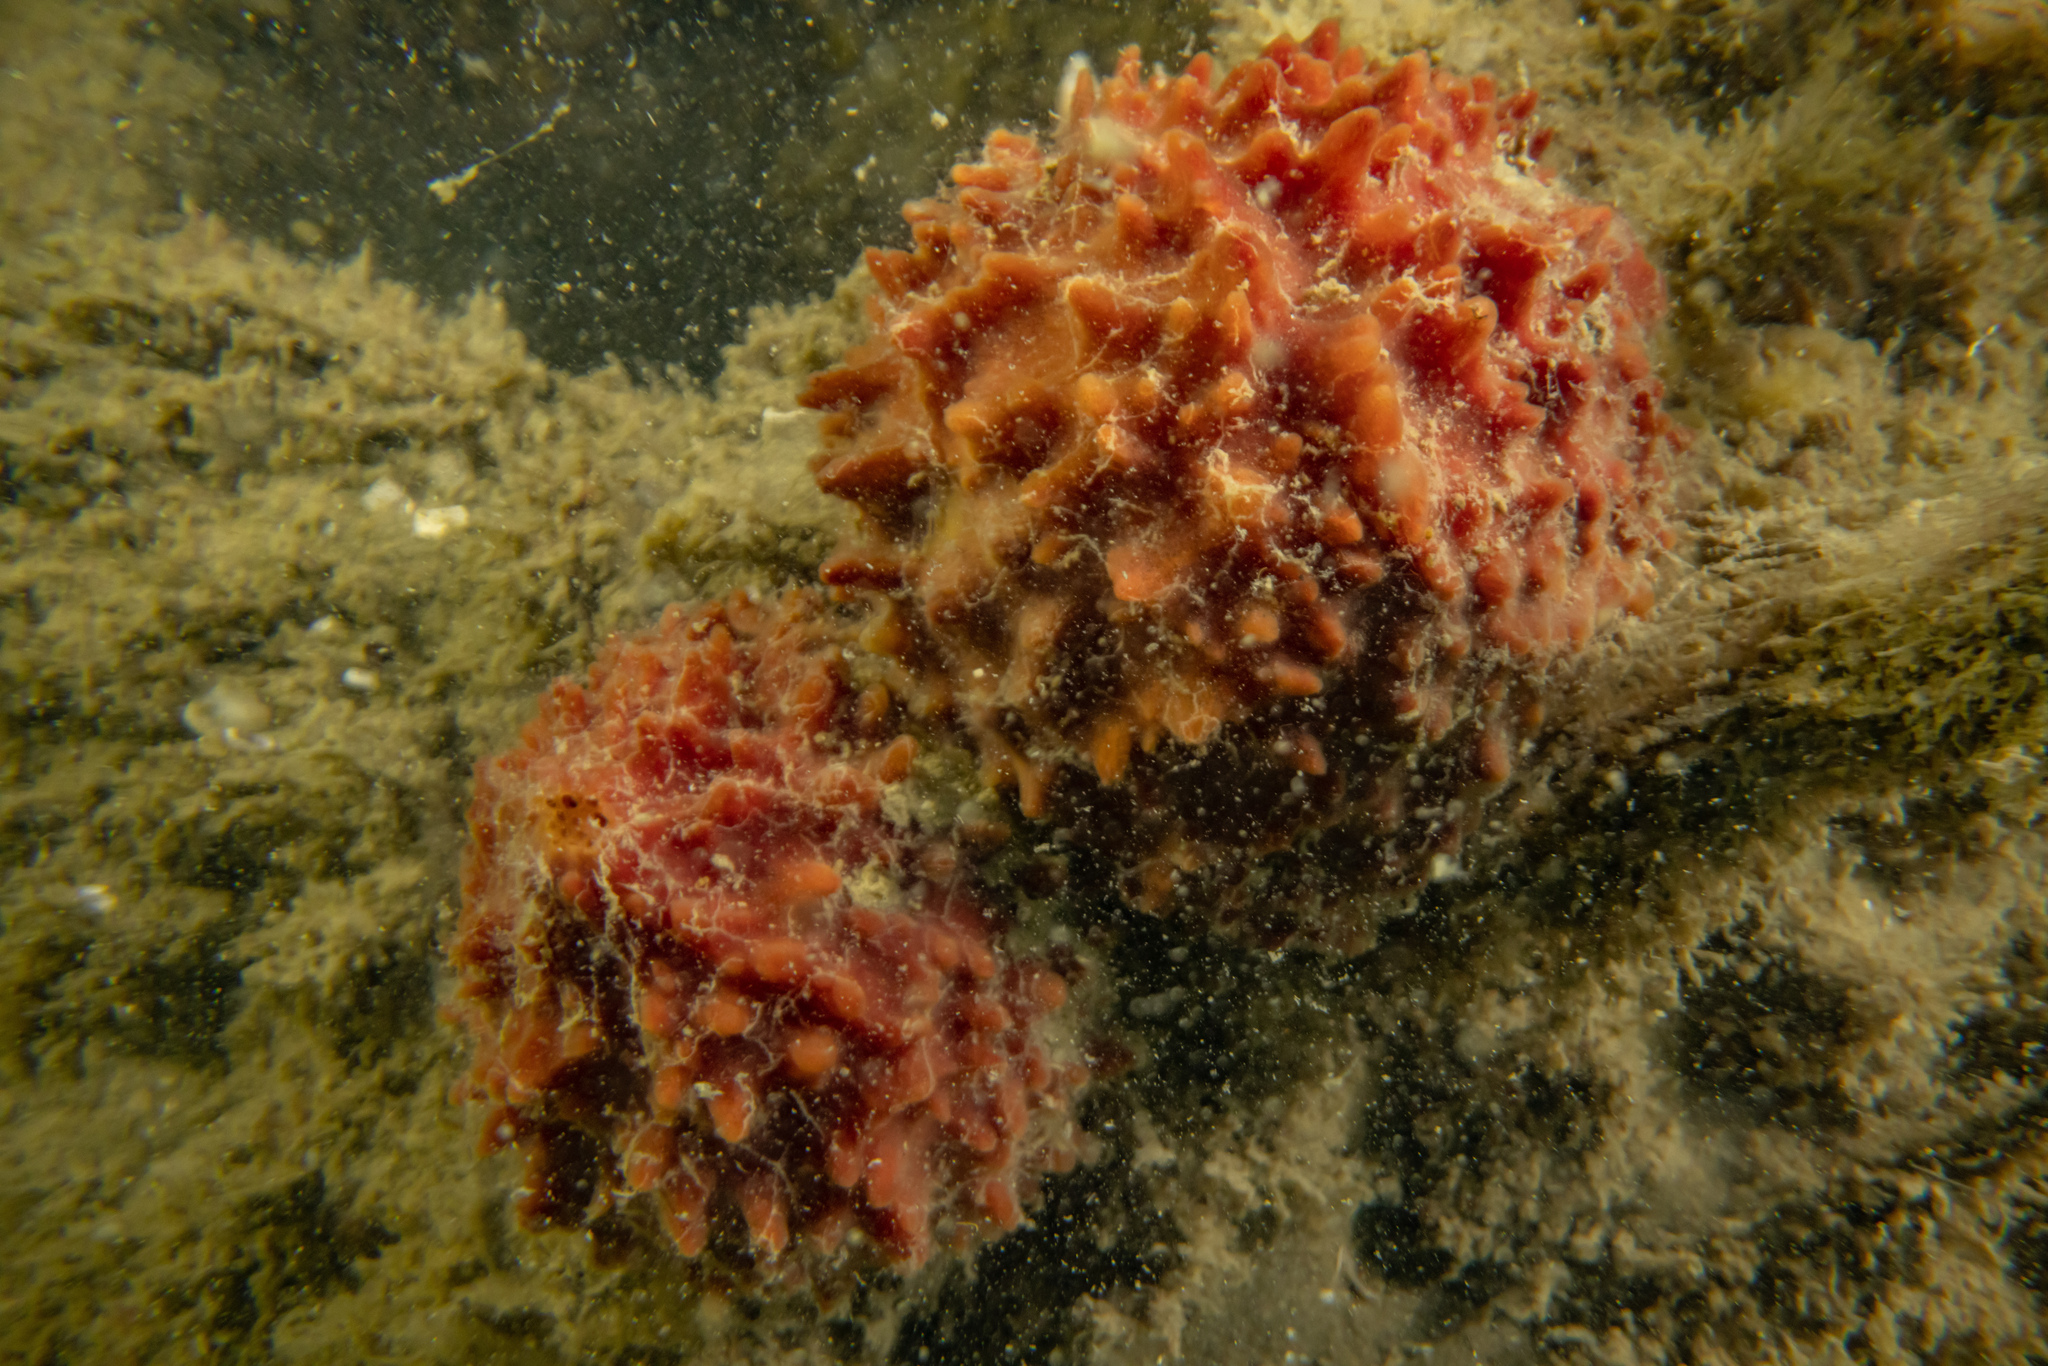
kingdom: Animalia
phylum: Porifera
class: Demospongiae
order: Suberitida
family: Suberitidae
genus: Aaptos
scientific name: Aaptos globosa
